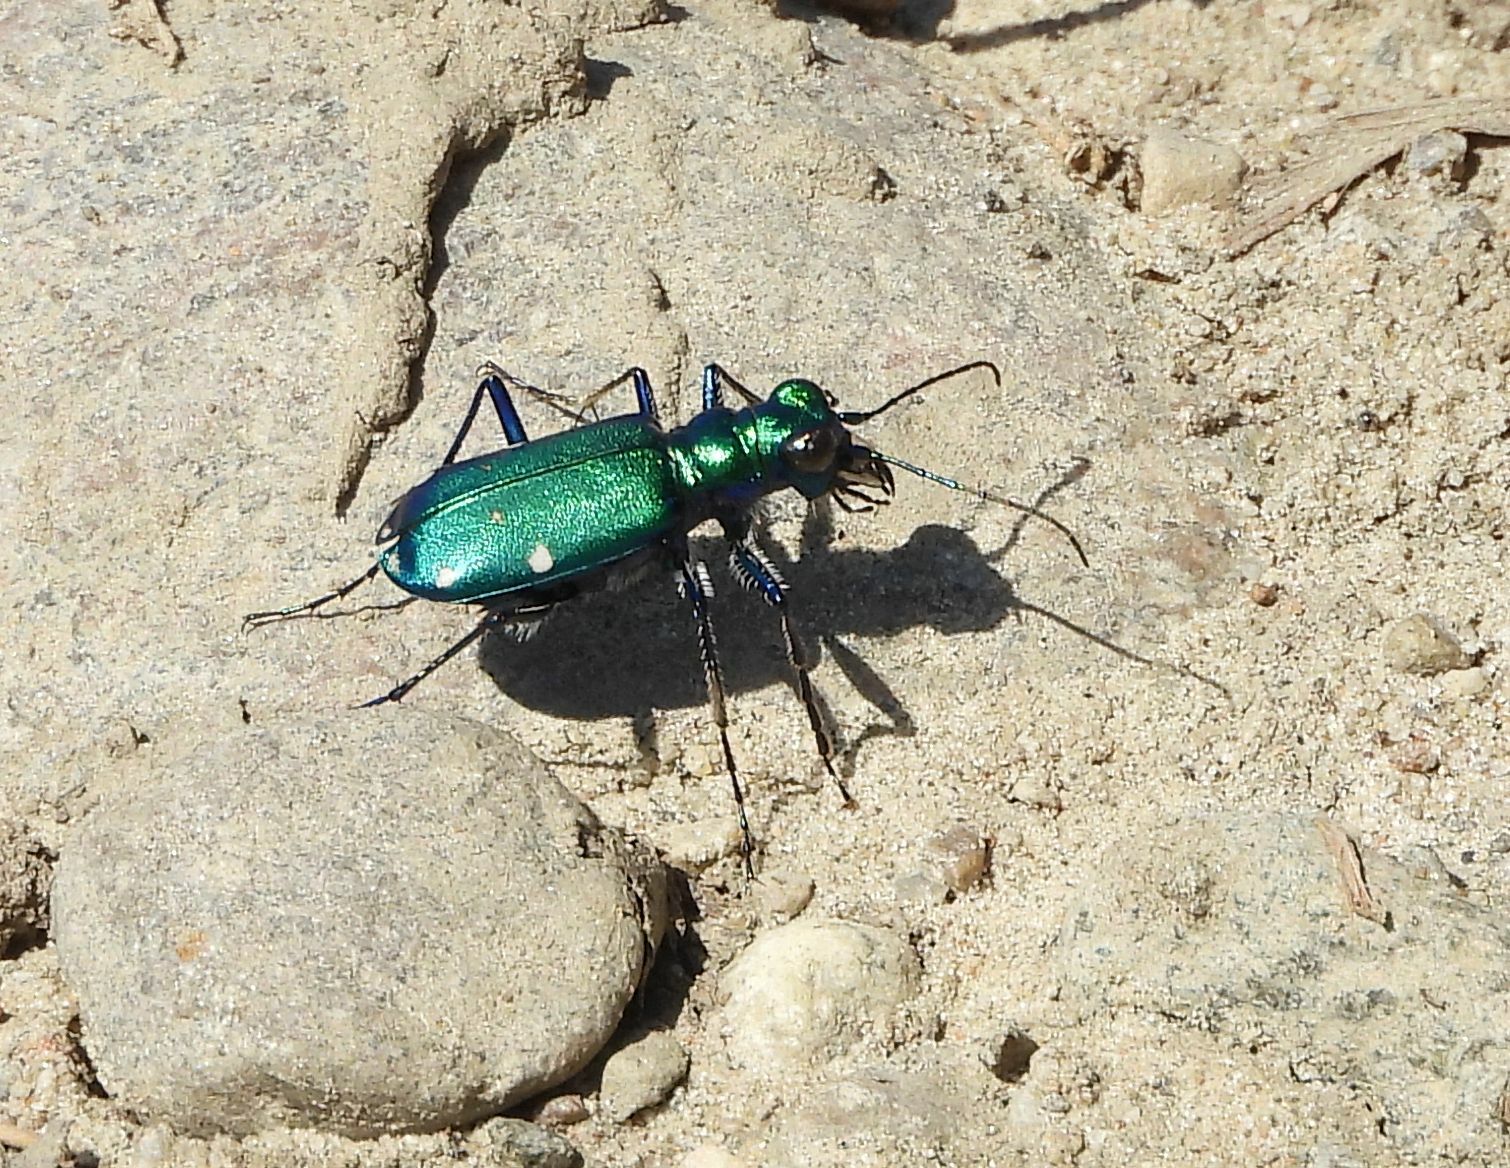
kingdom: Animalia
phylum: Arthropoda
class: Insecta
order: Coleoptera
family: Carabidae
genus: Cicindela
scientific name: Cicindela sexguttata
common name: Six-spotted tiger beetle
